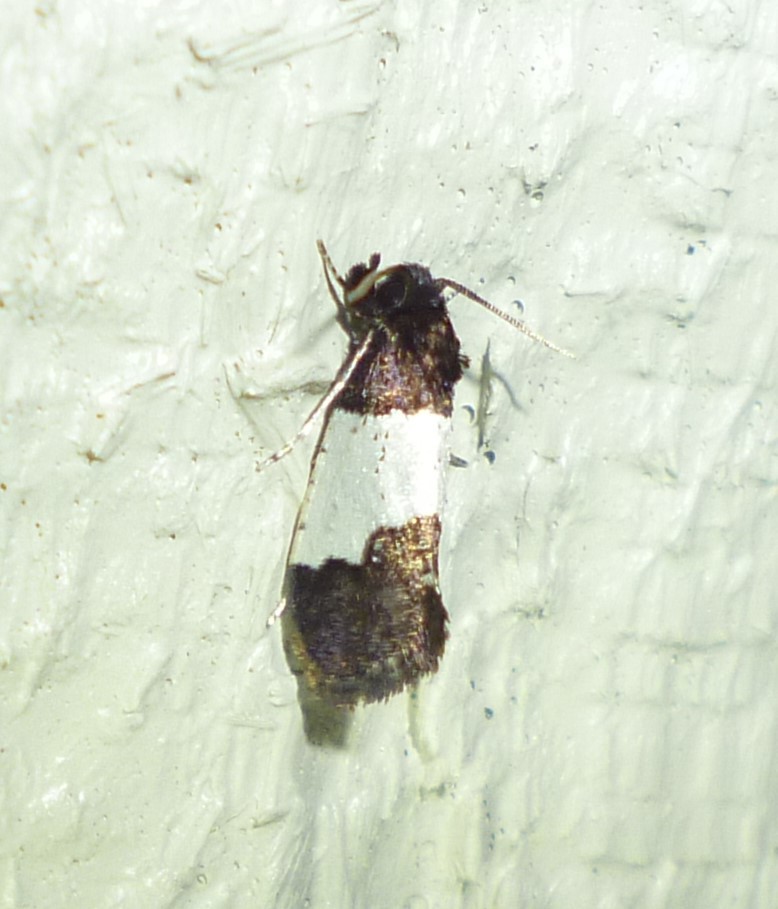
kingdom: Animalia
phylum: Arthropoda
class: Insecta
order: Lepidoptera
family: Psychidae
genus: Kearfottia
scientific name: Kearfottia albifasciella
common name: White-patched kearfottia
